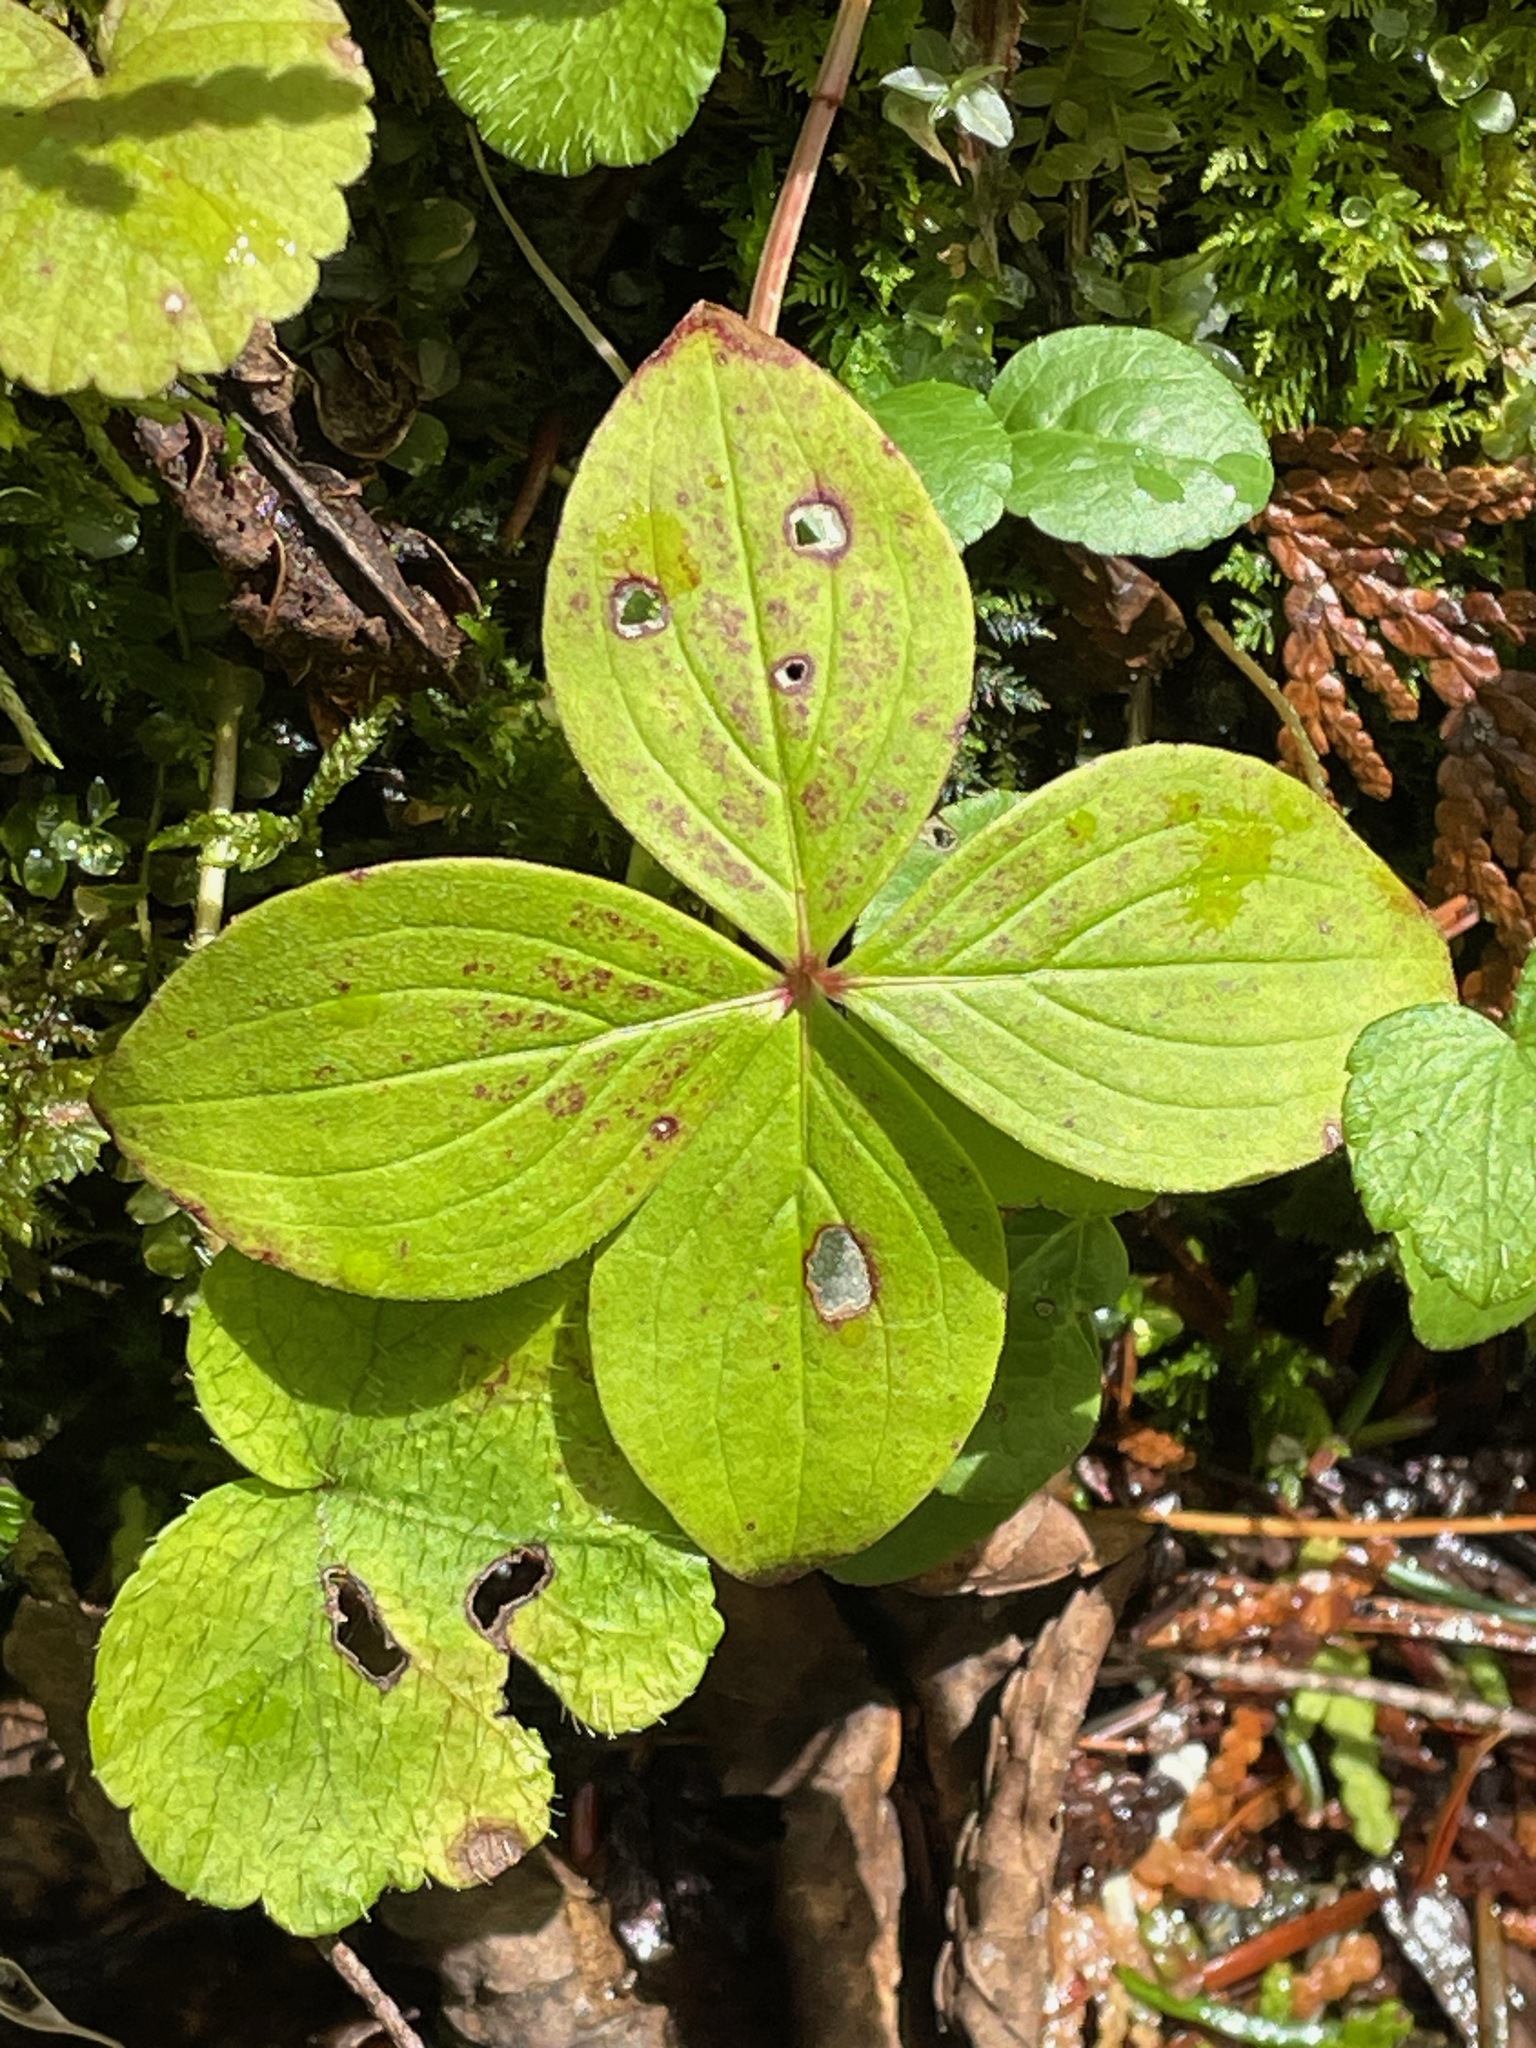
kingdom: Plantae
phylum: Tracheophyta
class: Magnoliopsida
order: Cornales
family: Cornaceae
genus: Cornus
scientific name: Cornus canadensis
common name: Creeping dogwood
